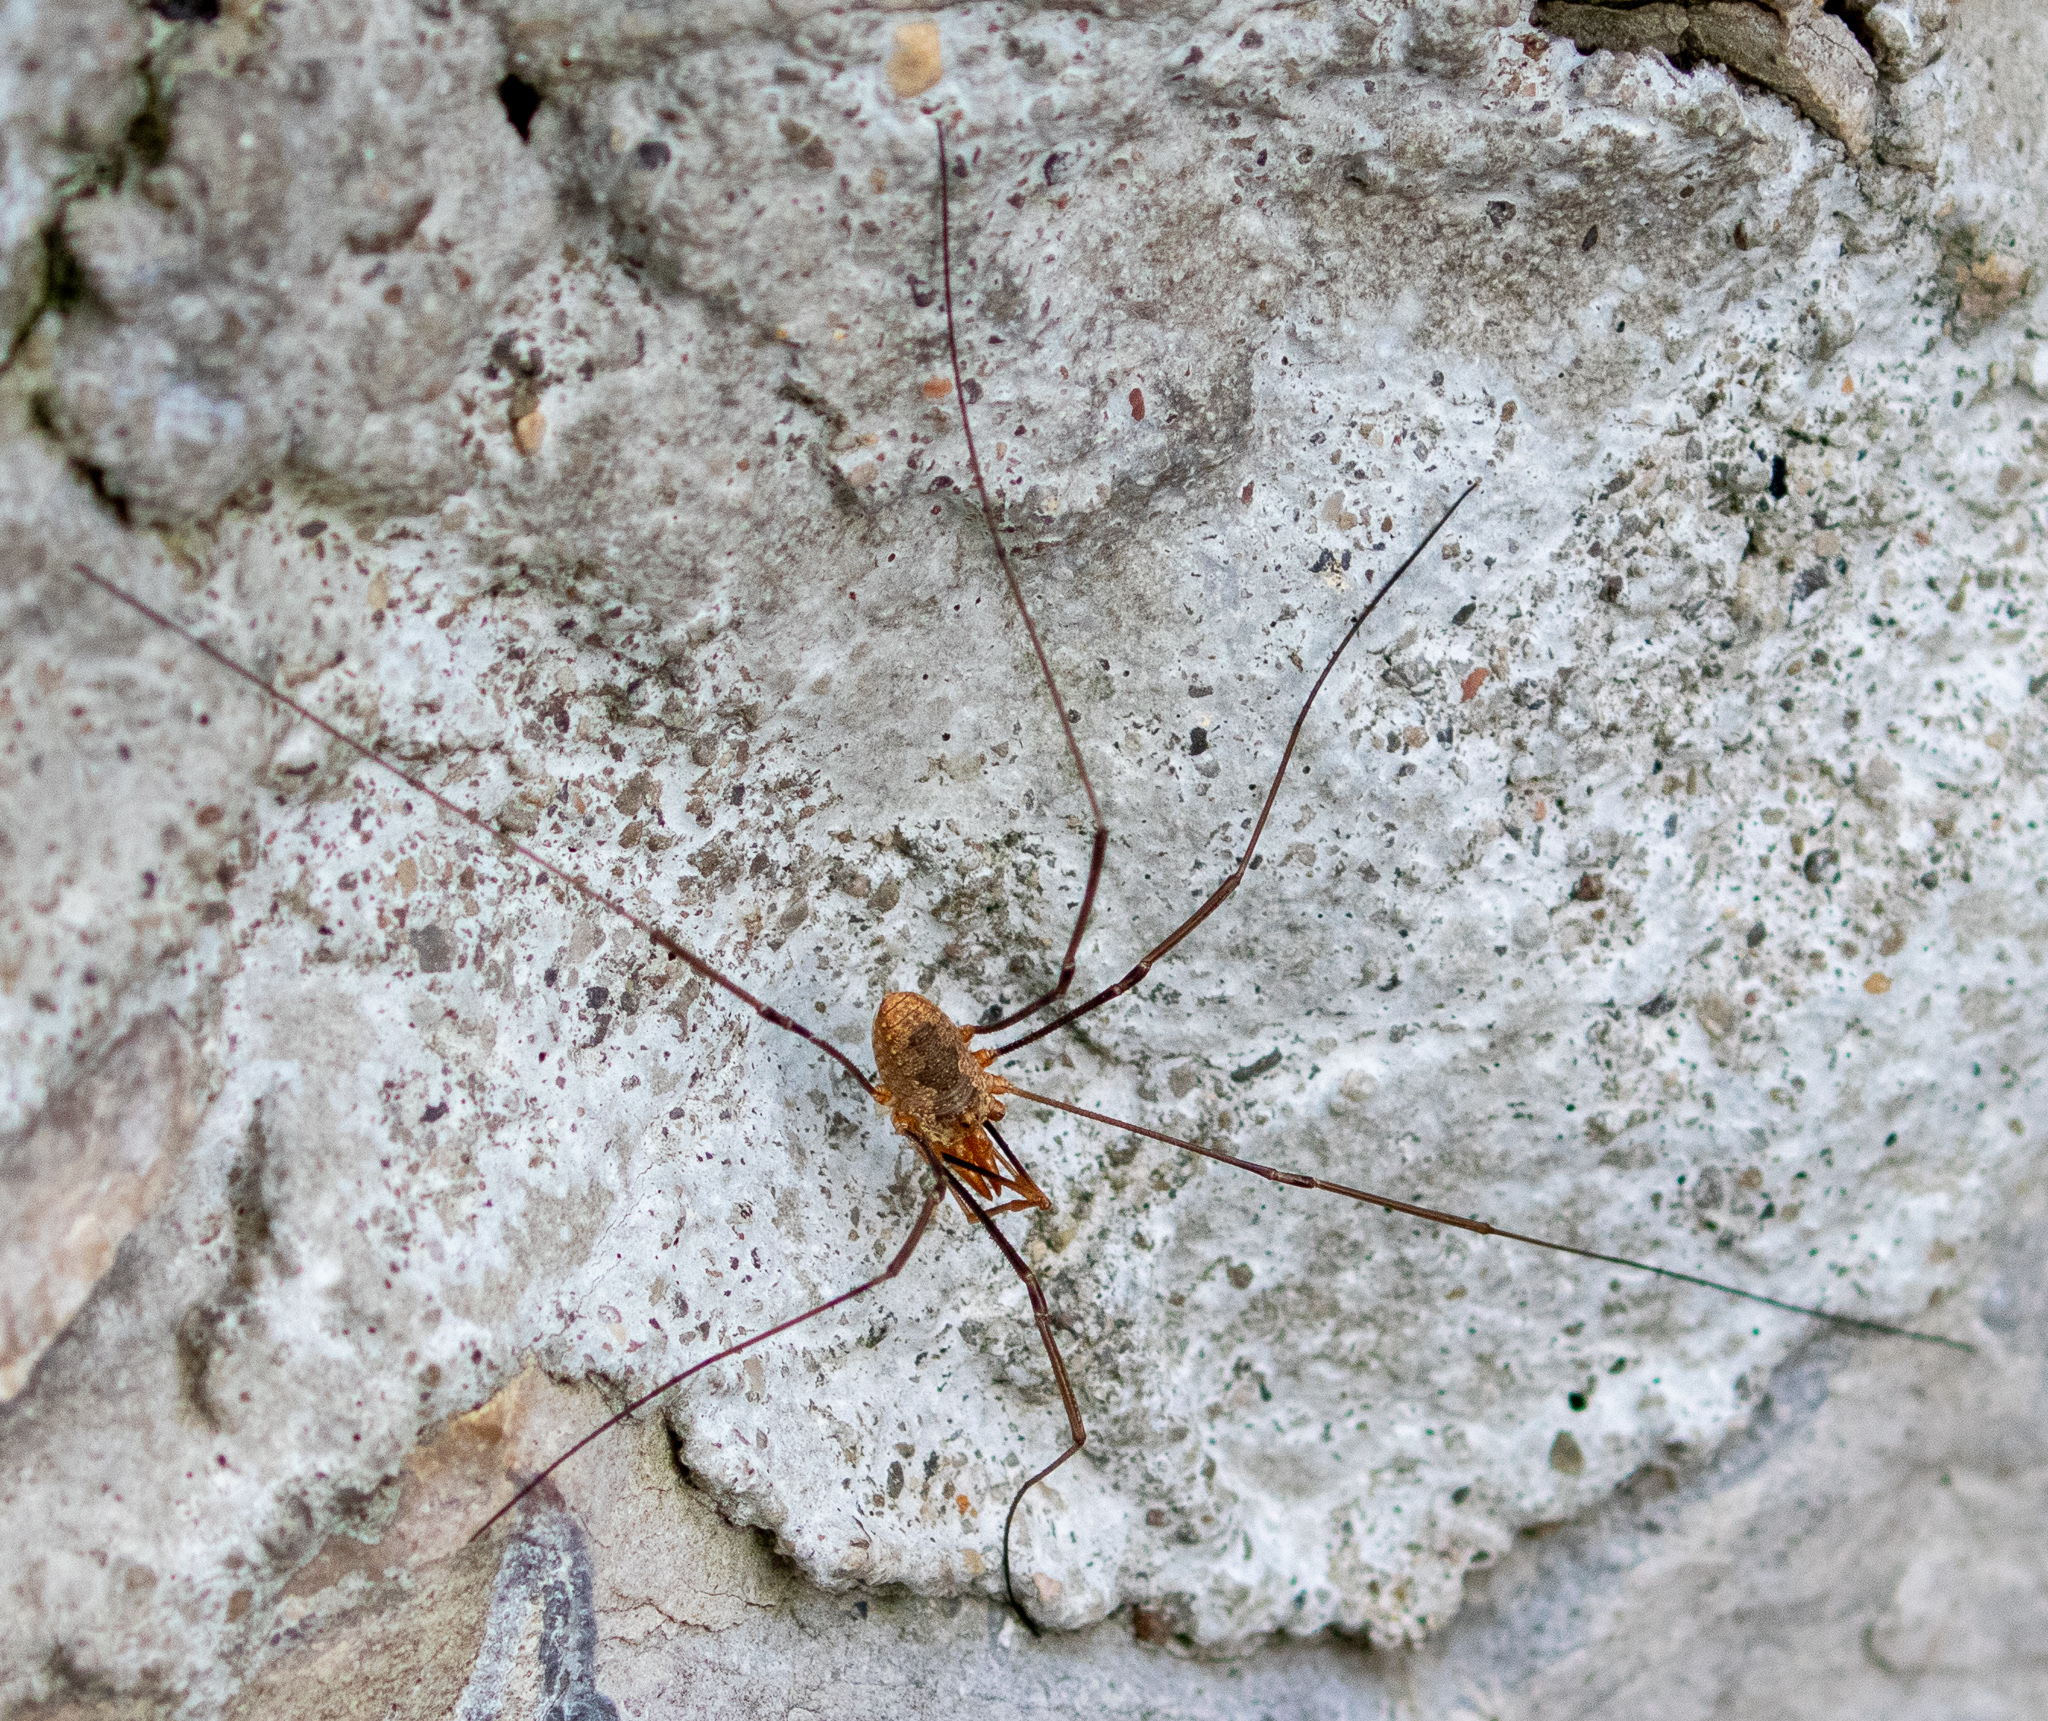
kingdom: Animalia
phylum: Arthropoda
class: Arachnida
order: Opiliones
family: Phalangiidae
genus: Phalangium
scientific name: Phalangium opilio
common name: Daddy longleg
